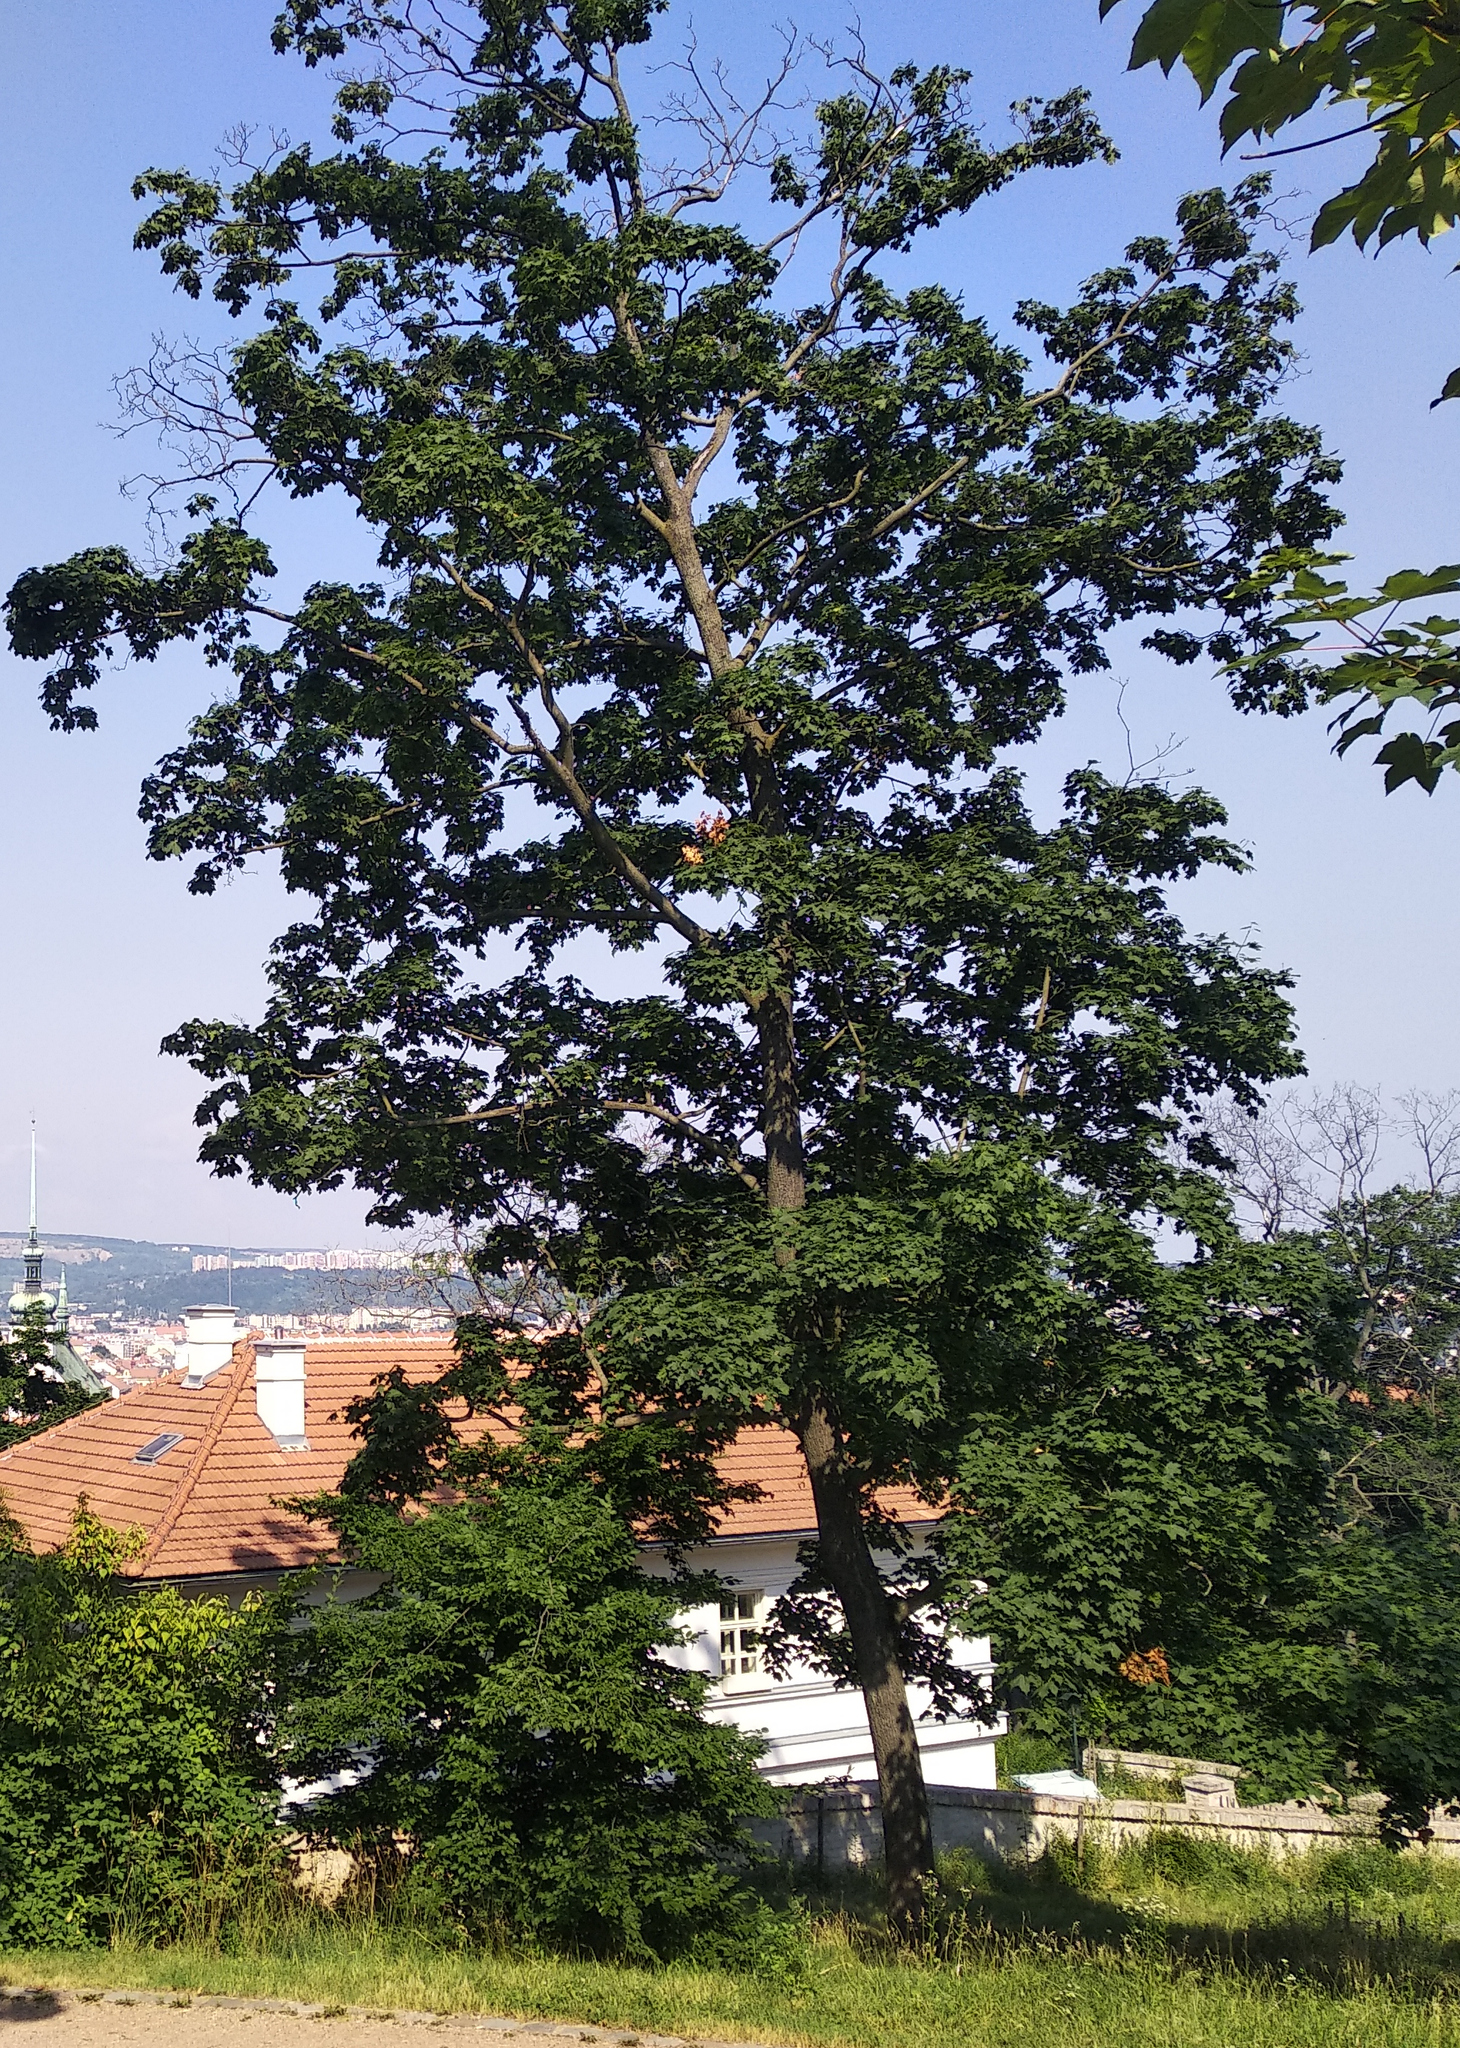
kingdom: Plantae
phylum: Tracheophyta
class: Magnoliopsida
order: Sapindales
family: Sapindaceae
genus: Acer
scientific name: Acer platanoides
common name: Norway maple
